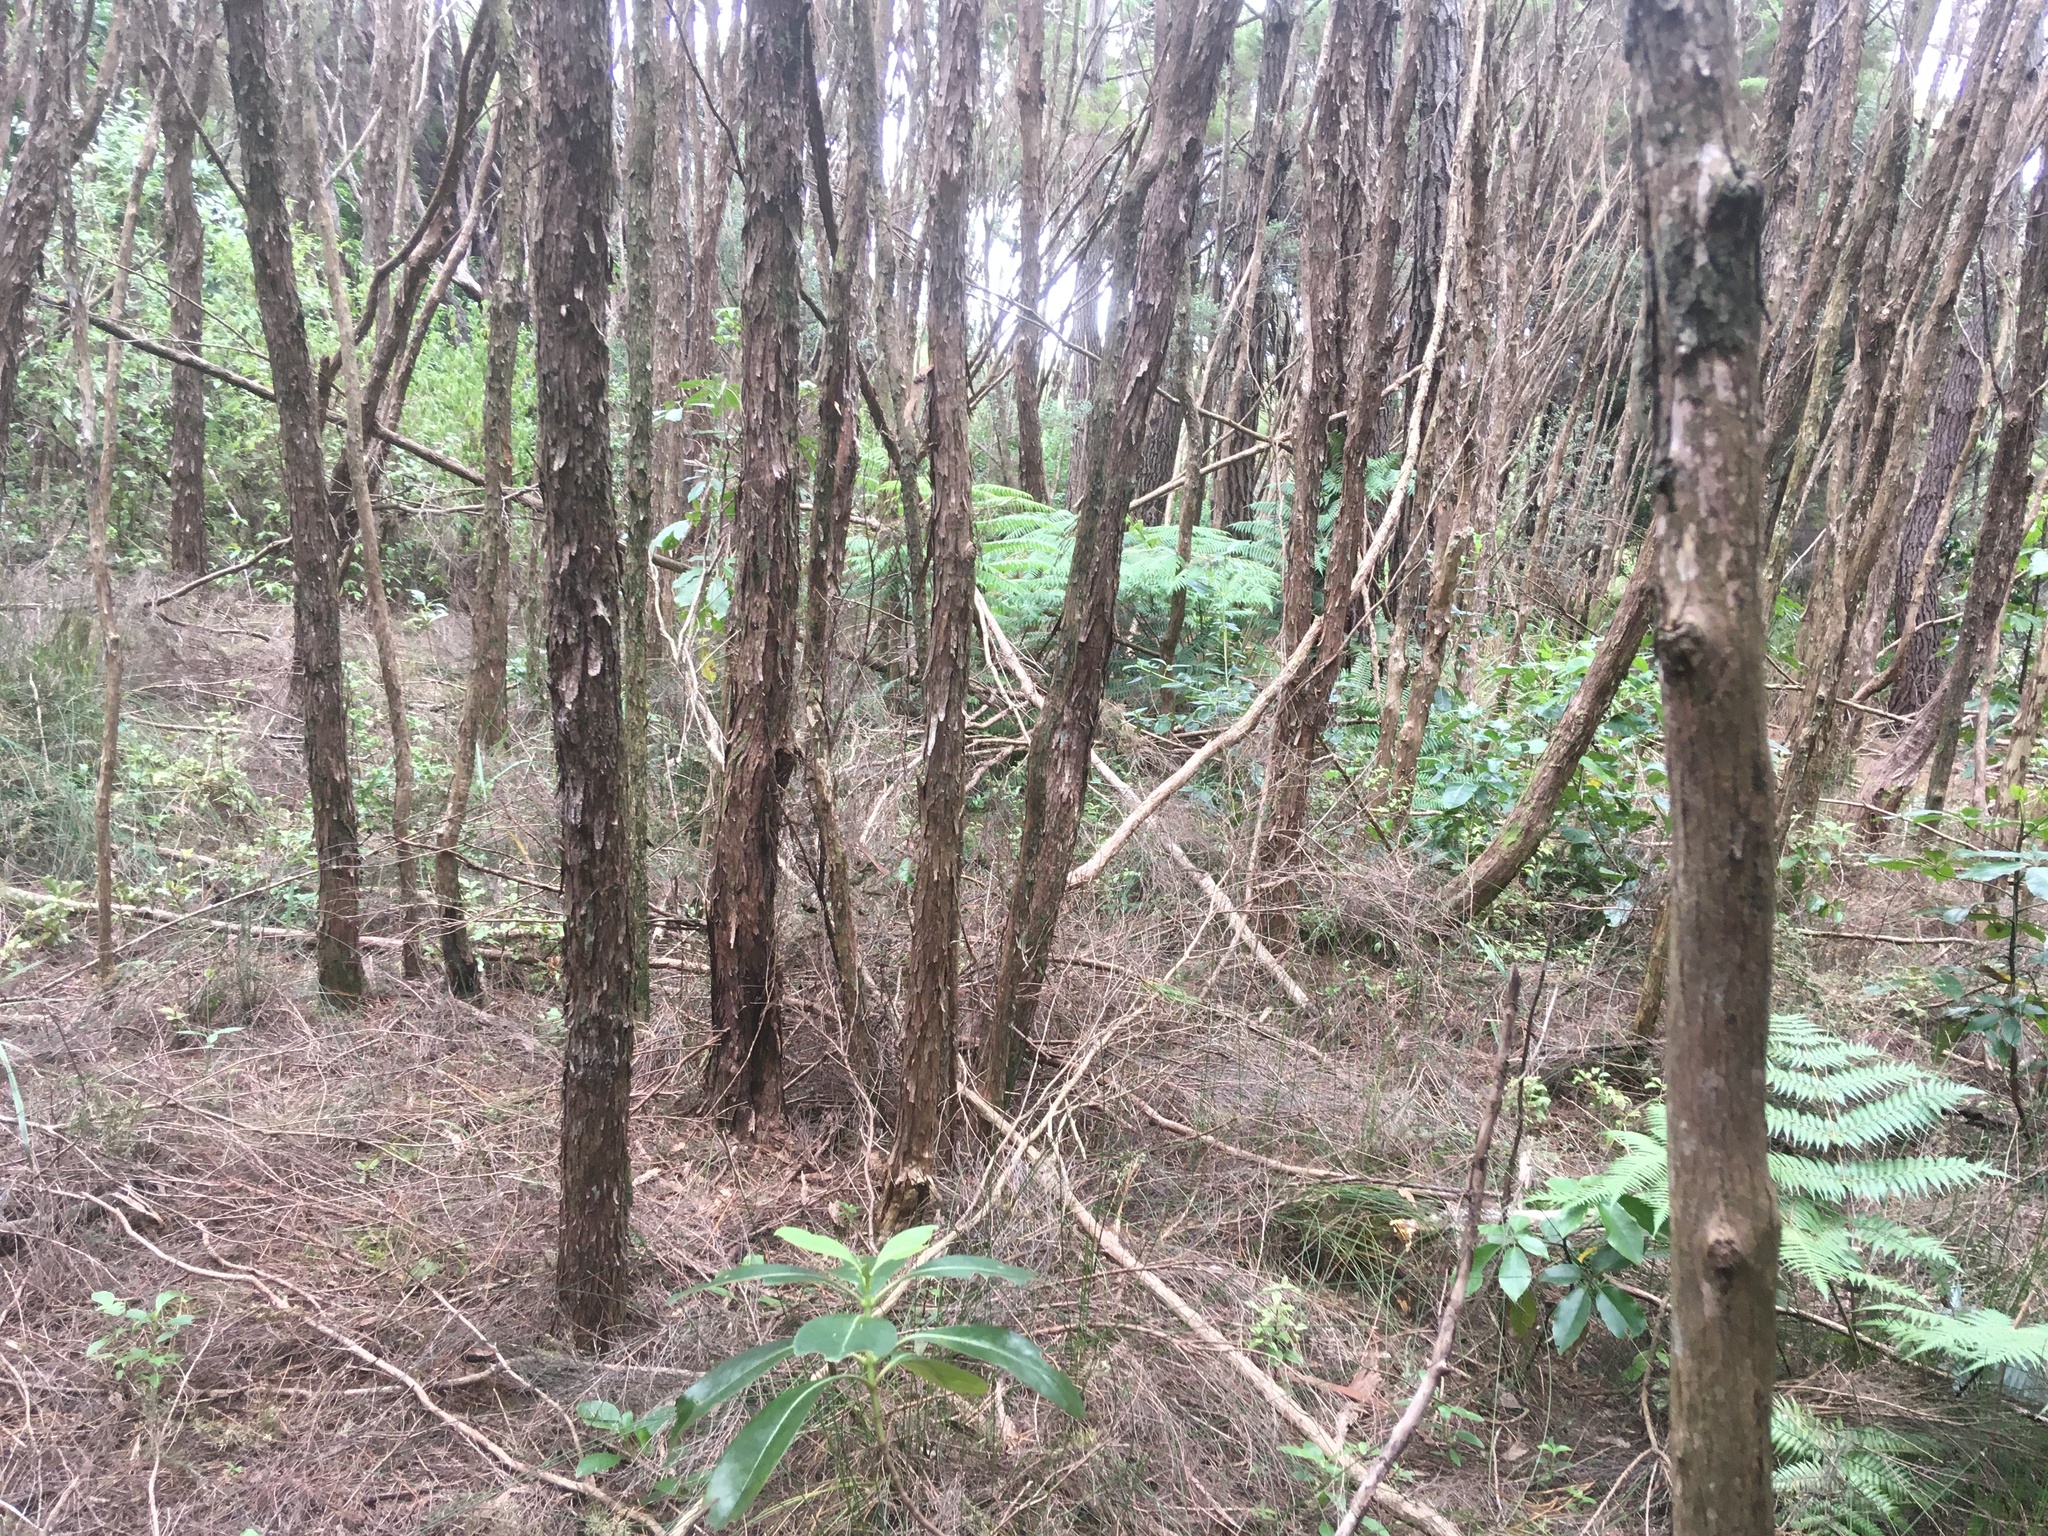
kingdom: Plantae
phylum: Tracheophyta
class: Magnoliopsida
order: Myrtales
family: Myrtaceae
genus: Leptospermum
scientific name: Leptospermum scoparium
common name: Broom tea-tree
